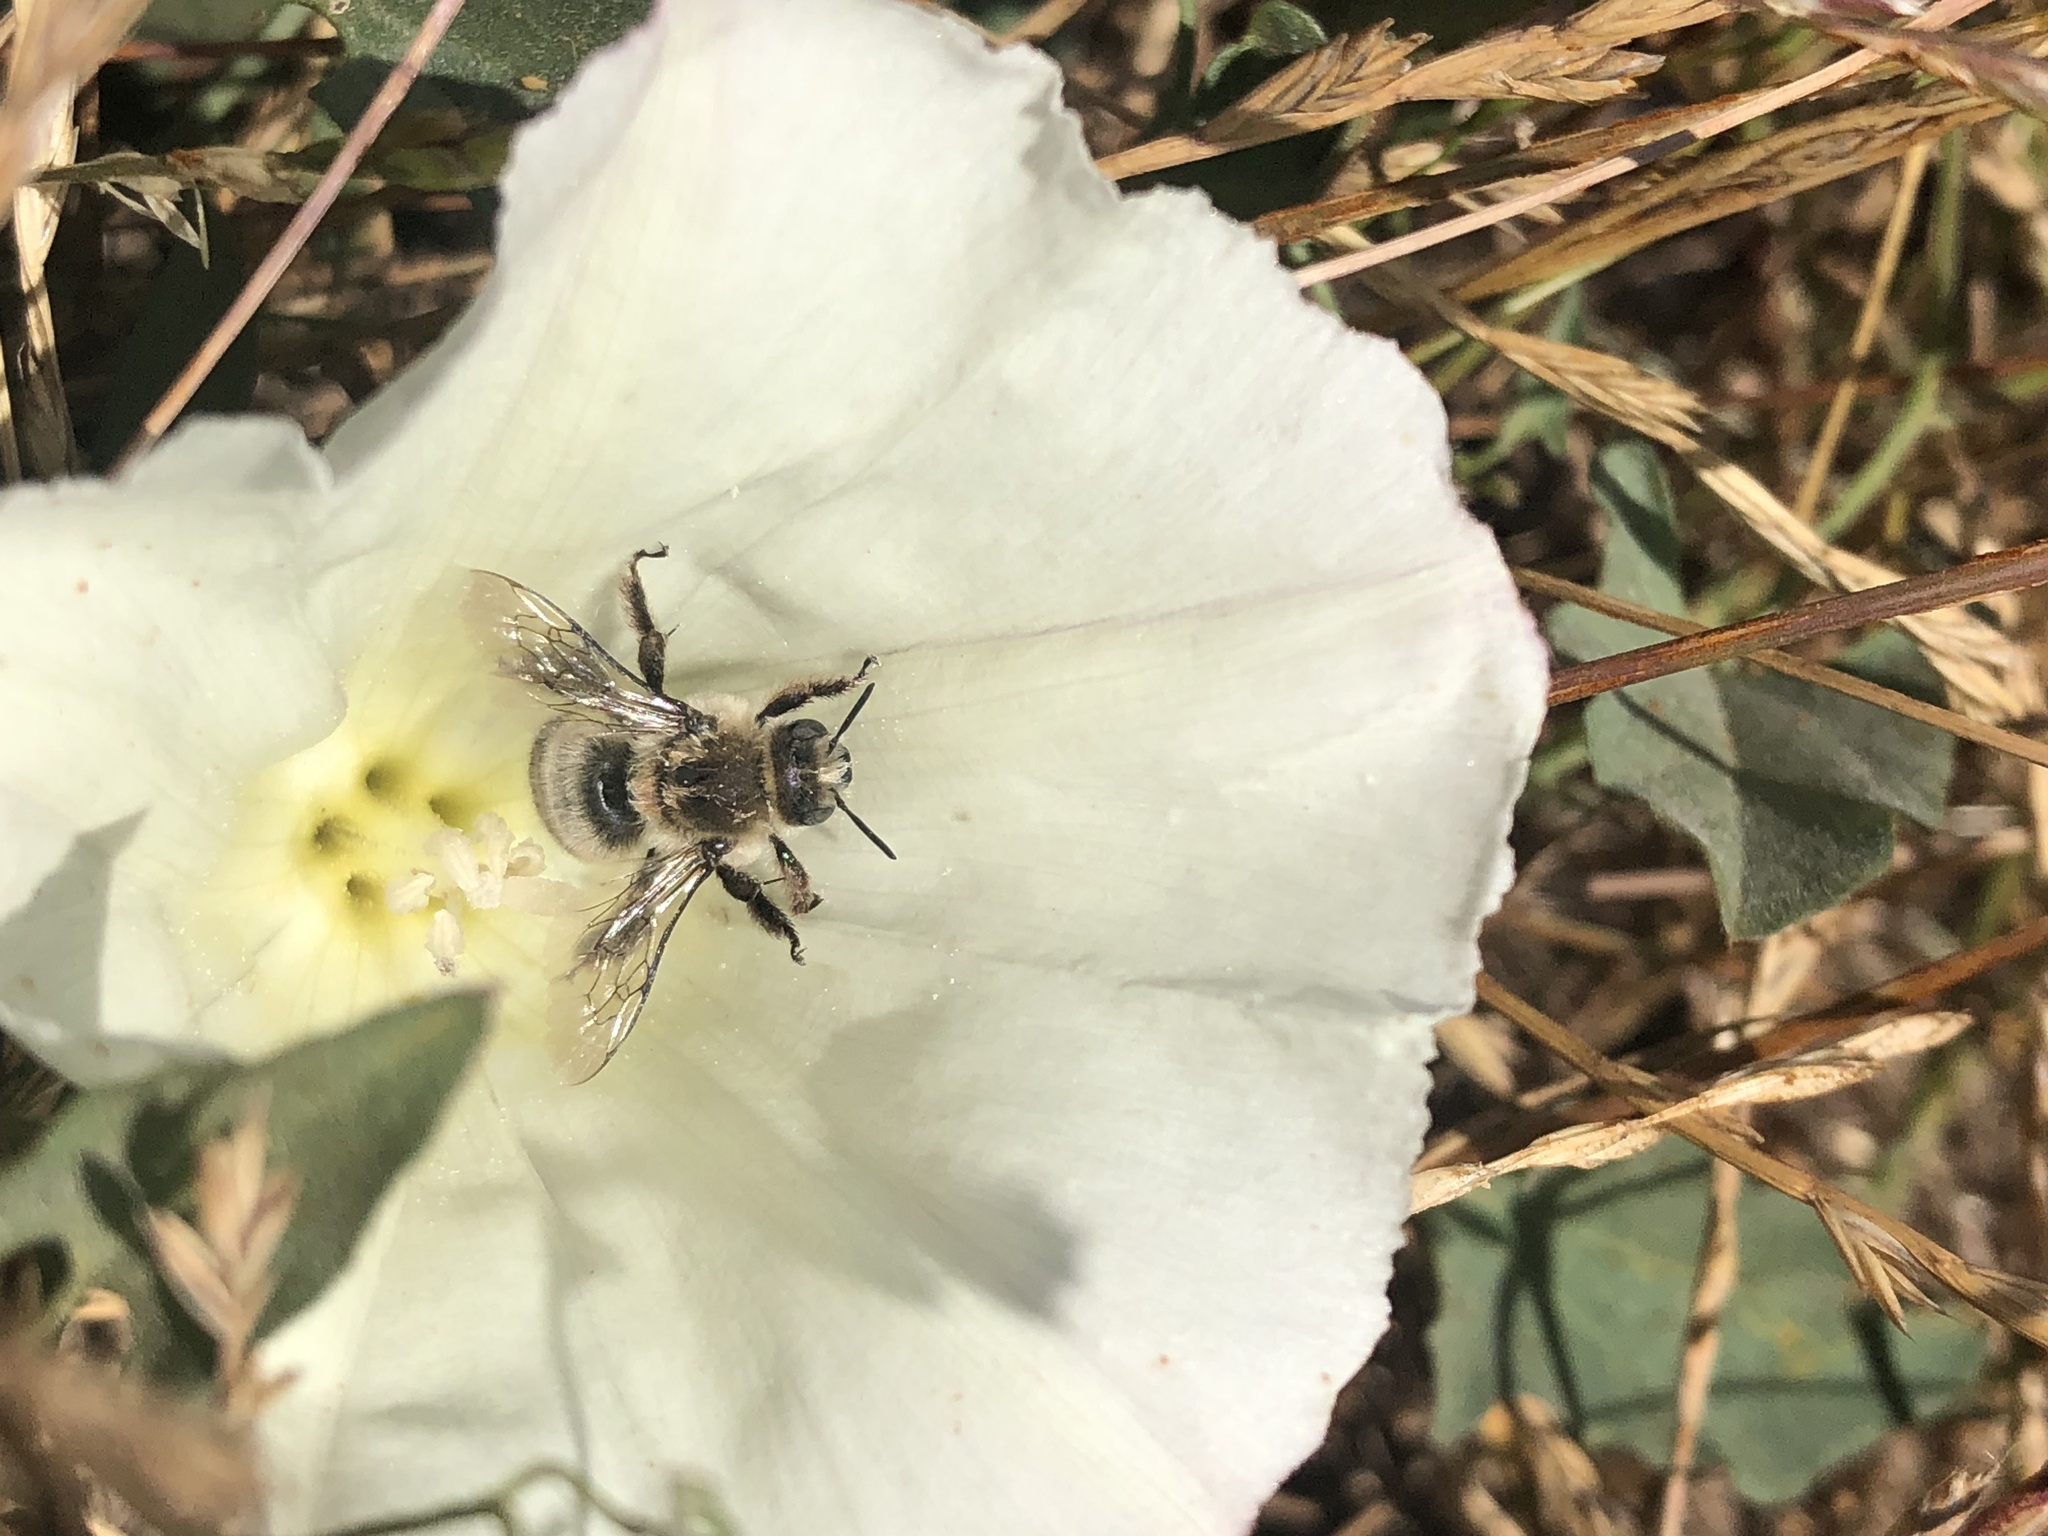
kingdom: Animalia
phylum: Arthropoda
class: Insecta
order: Hymenoptera
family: Apidae
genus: Diadasia
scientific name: Diadasia bituberculata
